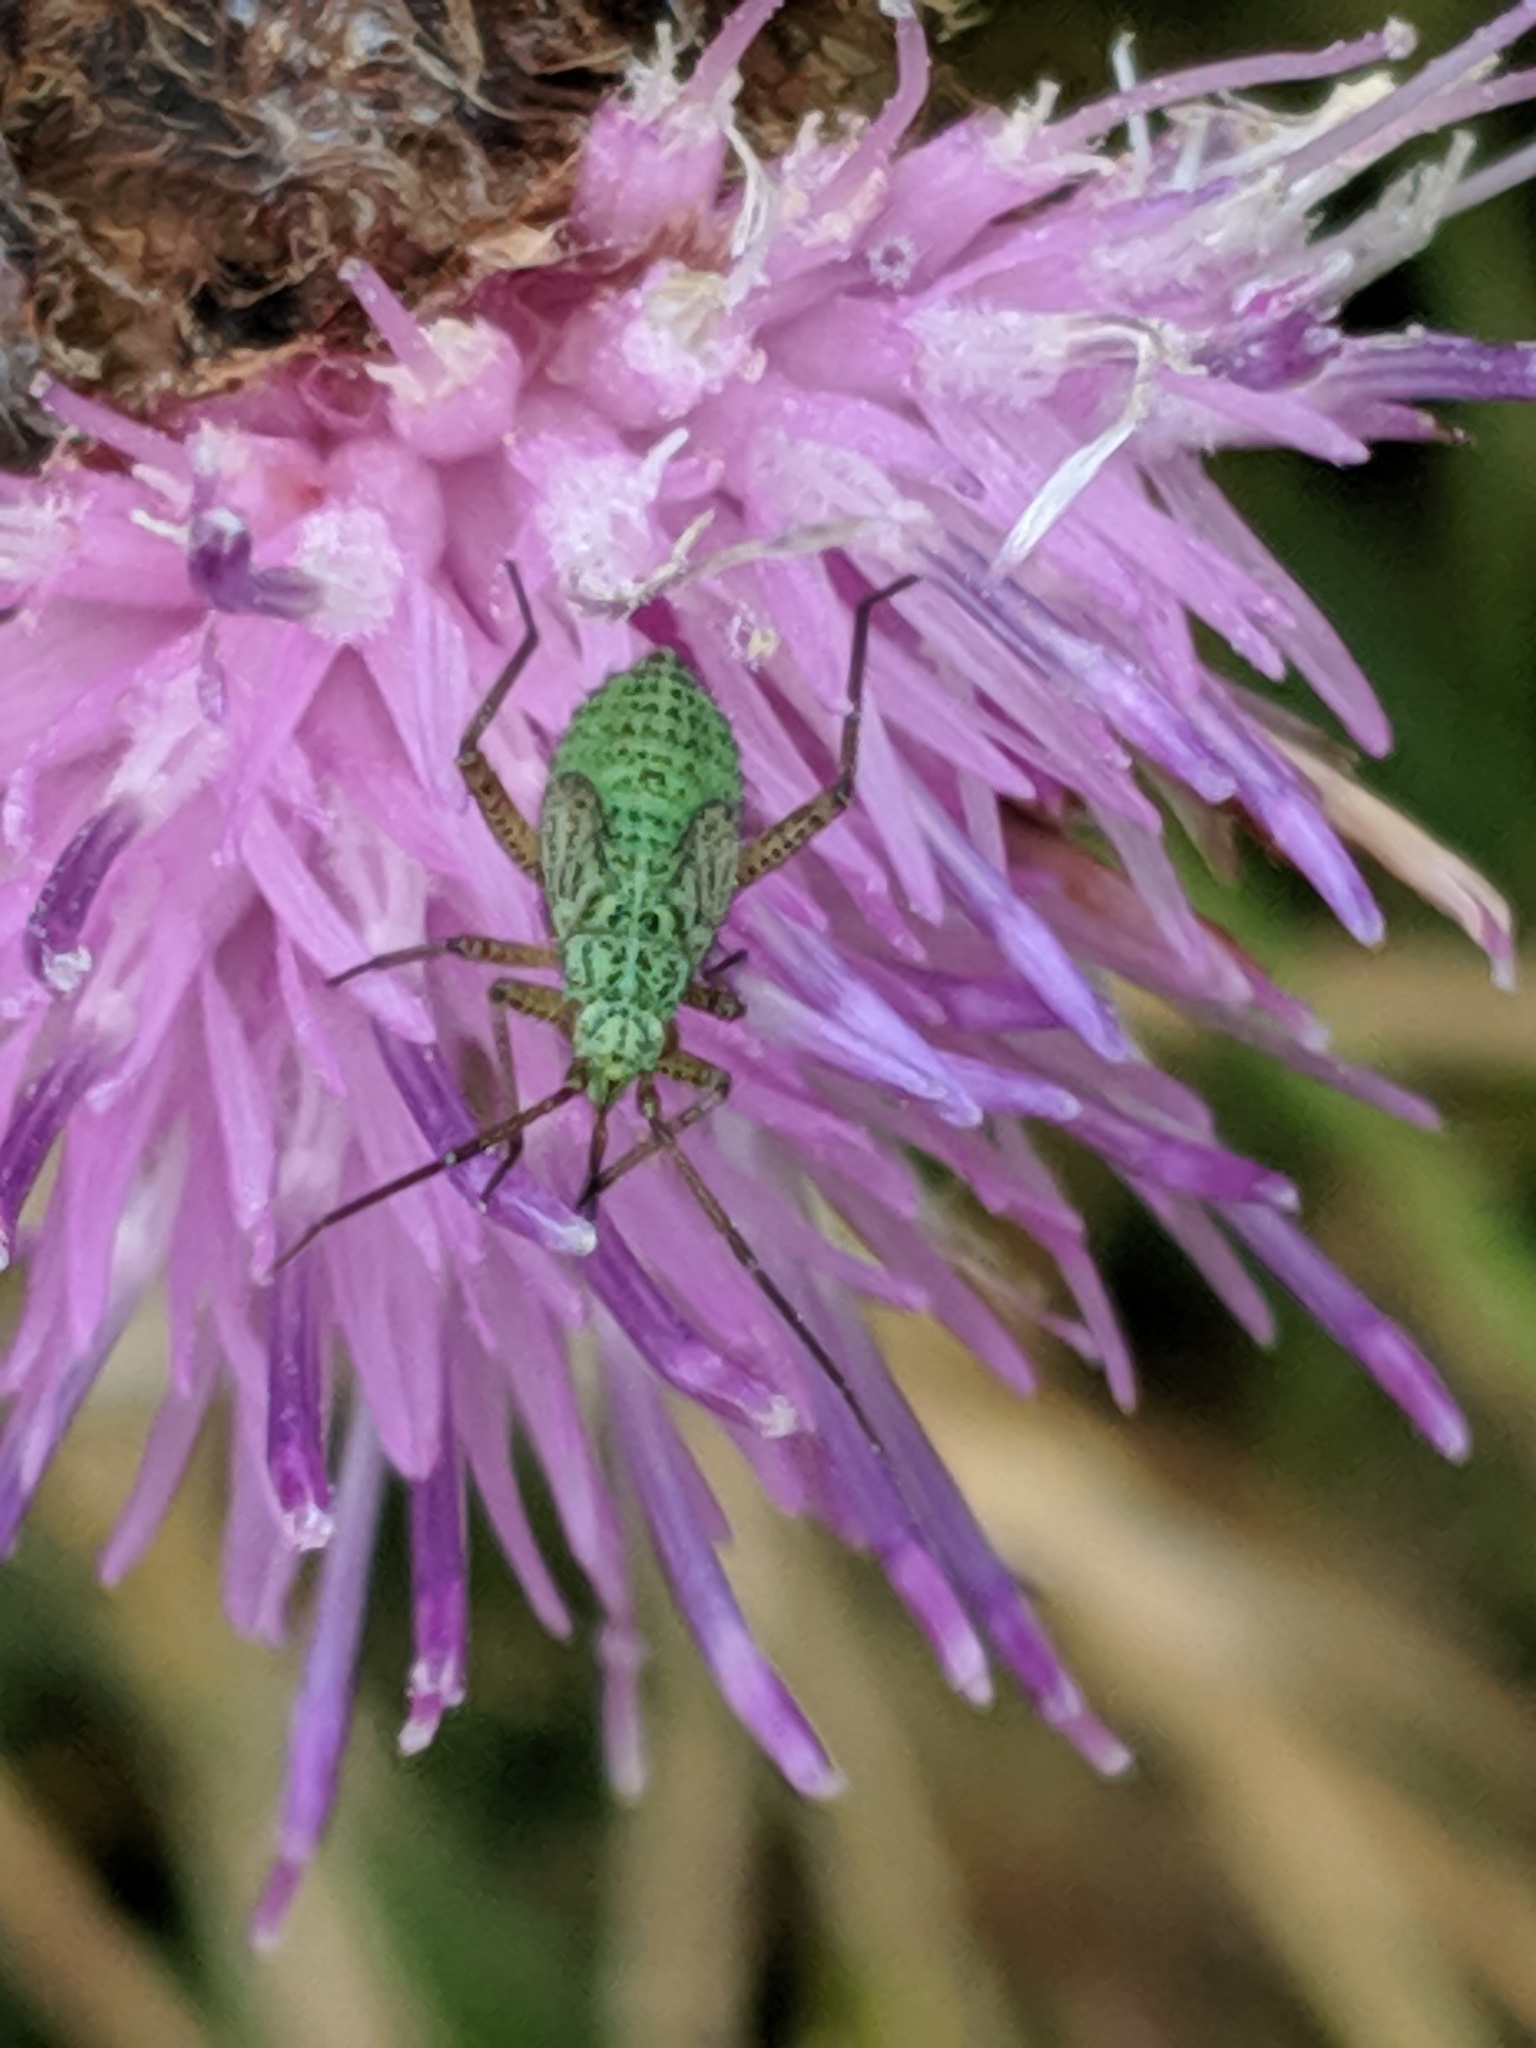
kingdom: Animalia
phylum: Arthropoda
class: Insecta
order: Hemiptera
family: Miridae
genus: Oncotylus
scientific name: Oncotylus viridiflavus
